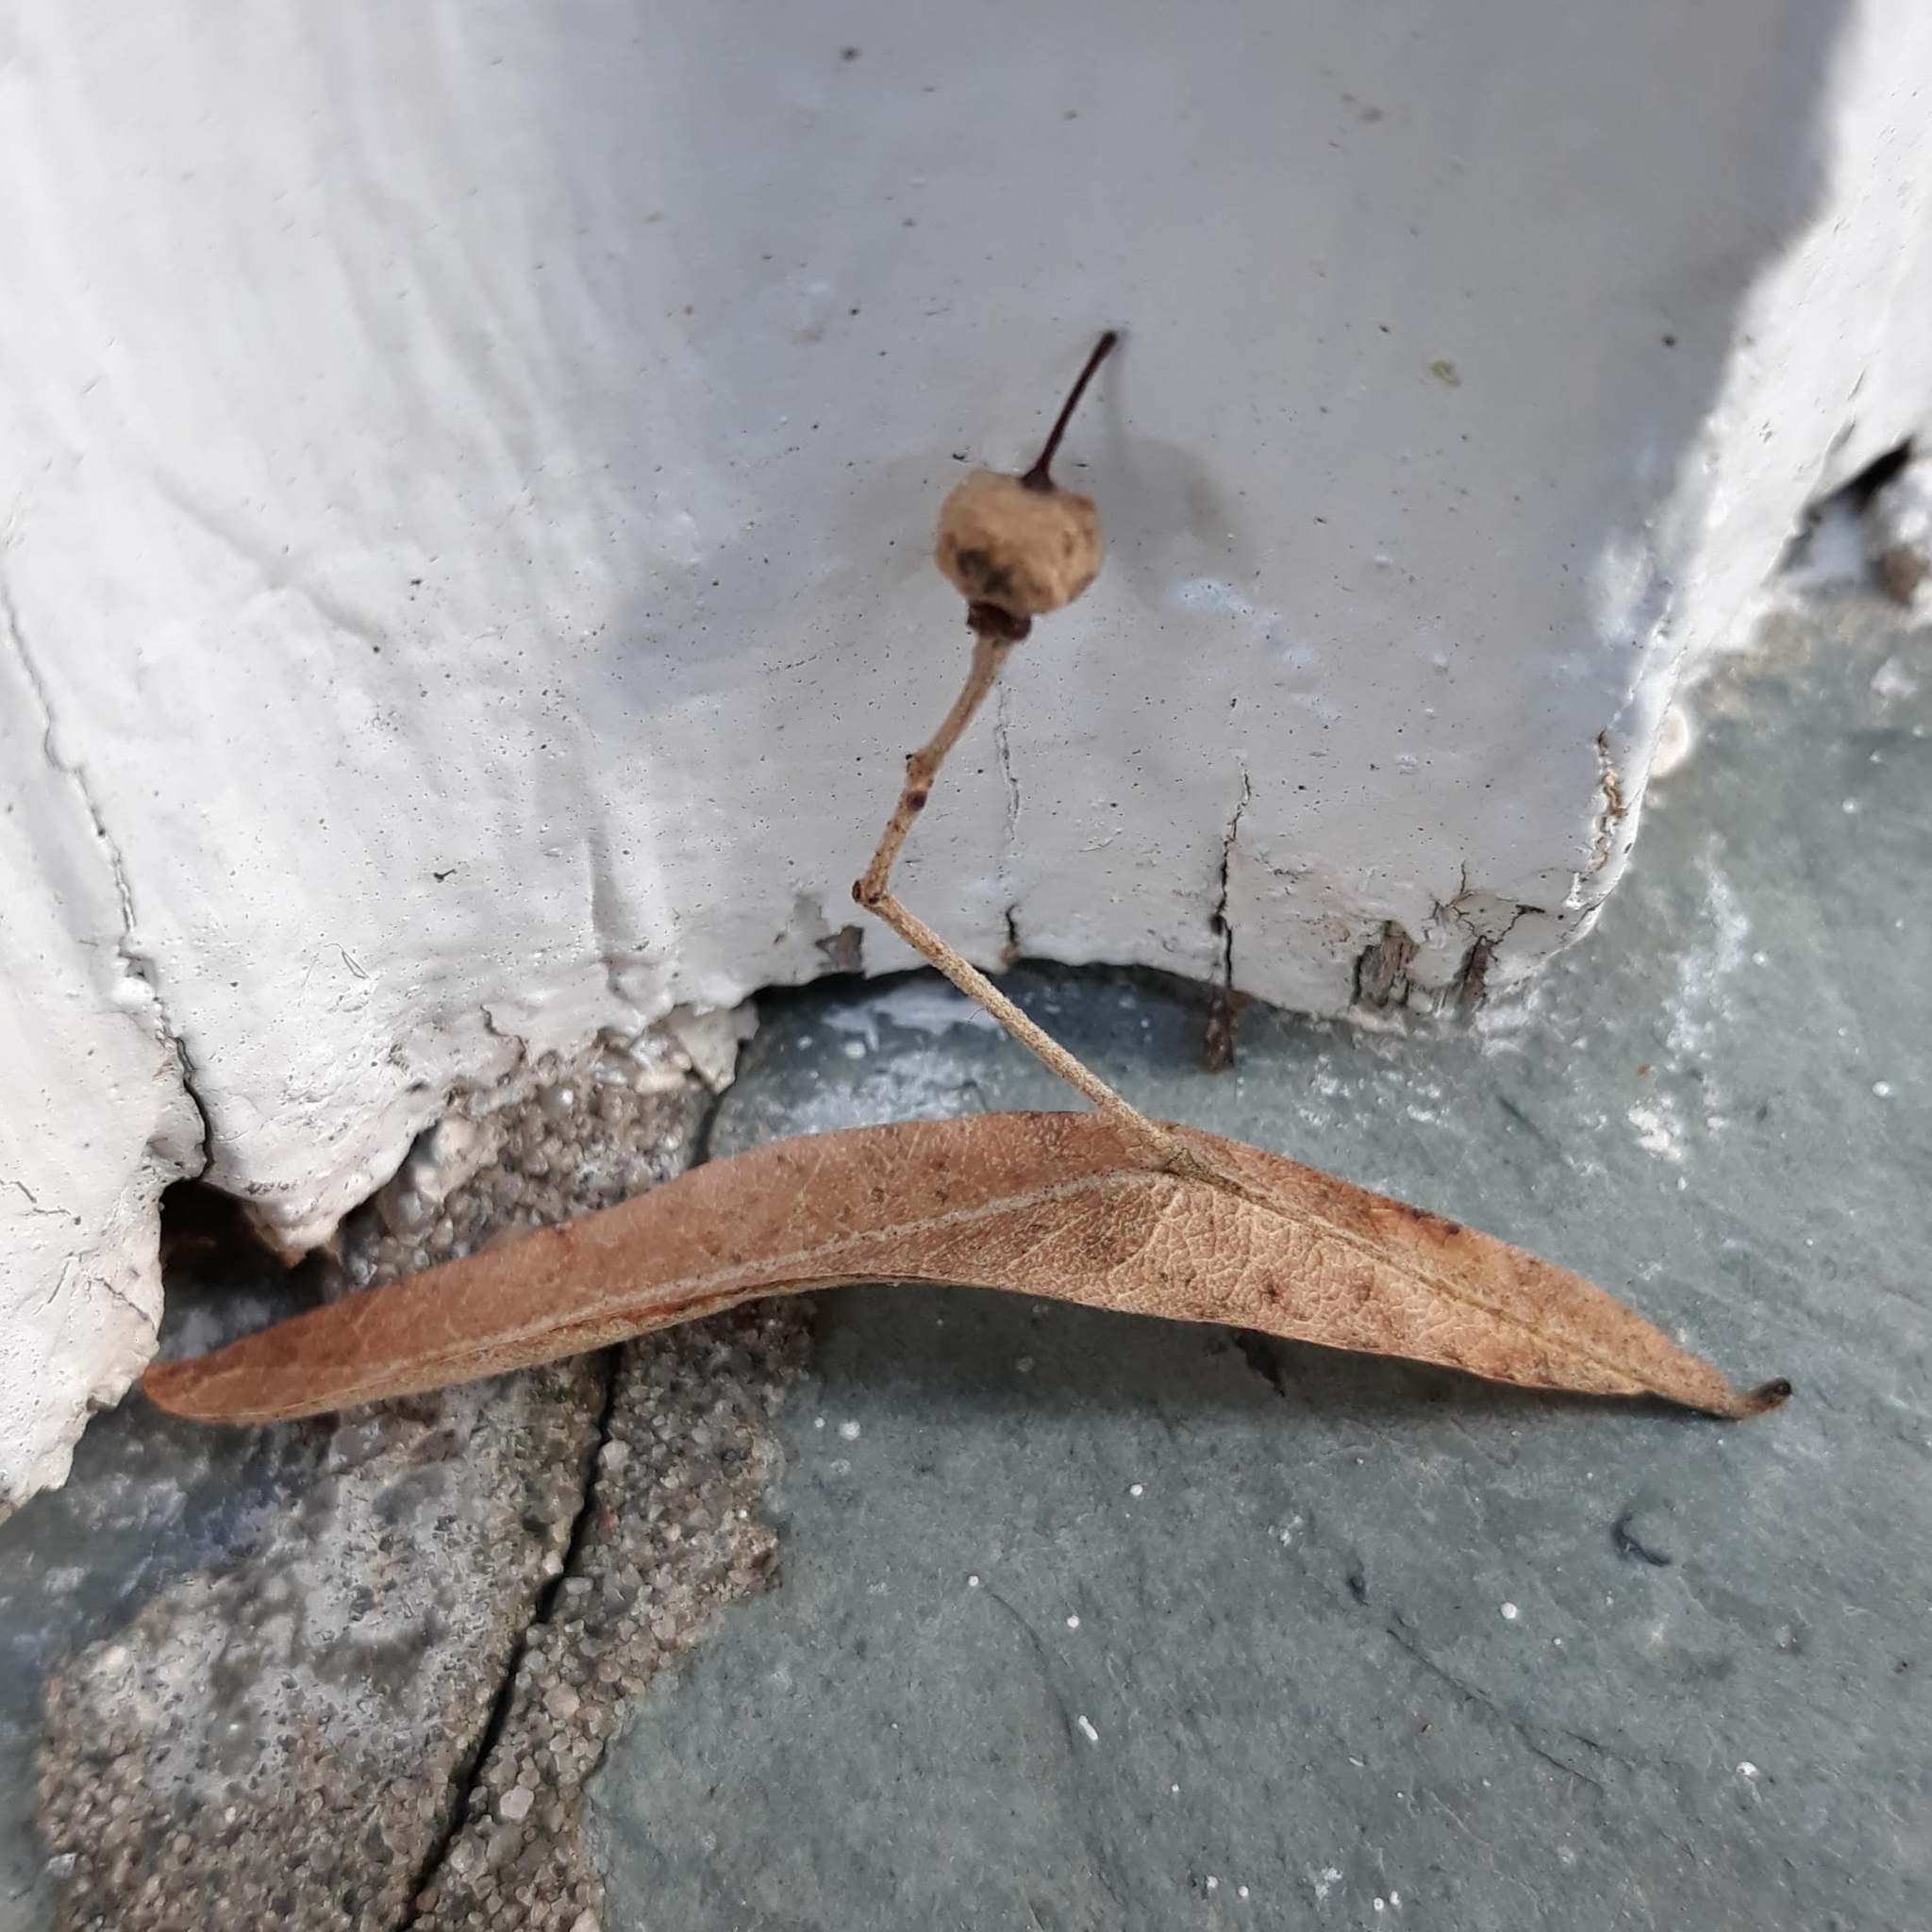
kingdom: Plantae
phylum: Tracheophyta
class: Magnoliopsida
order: Malvales
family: Malvaceae
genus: Tilia
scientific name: Tilia
